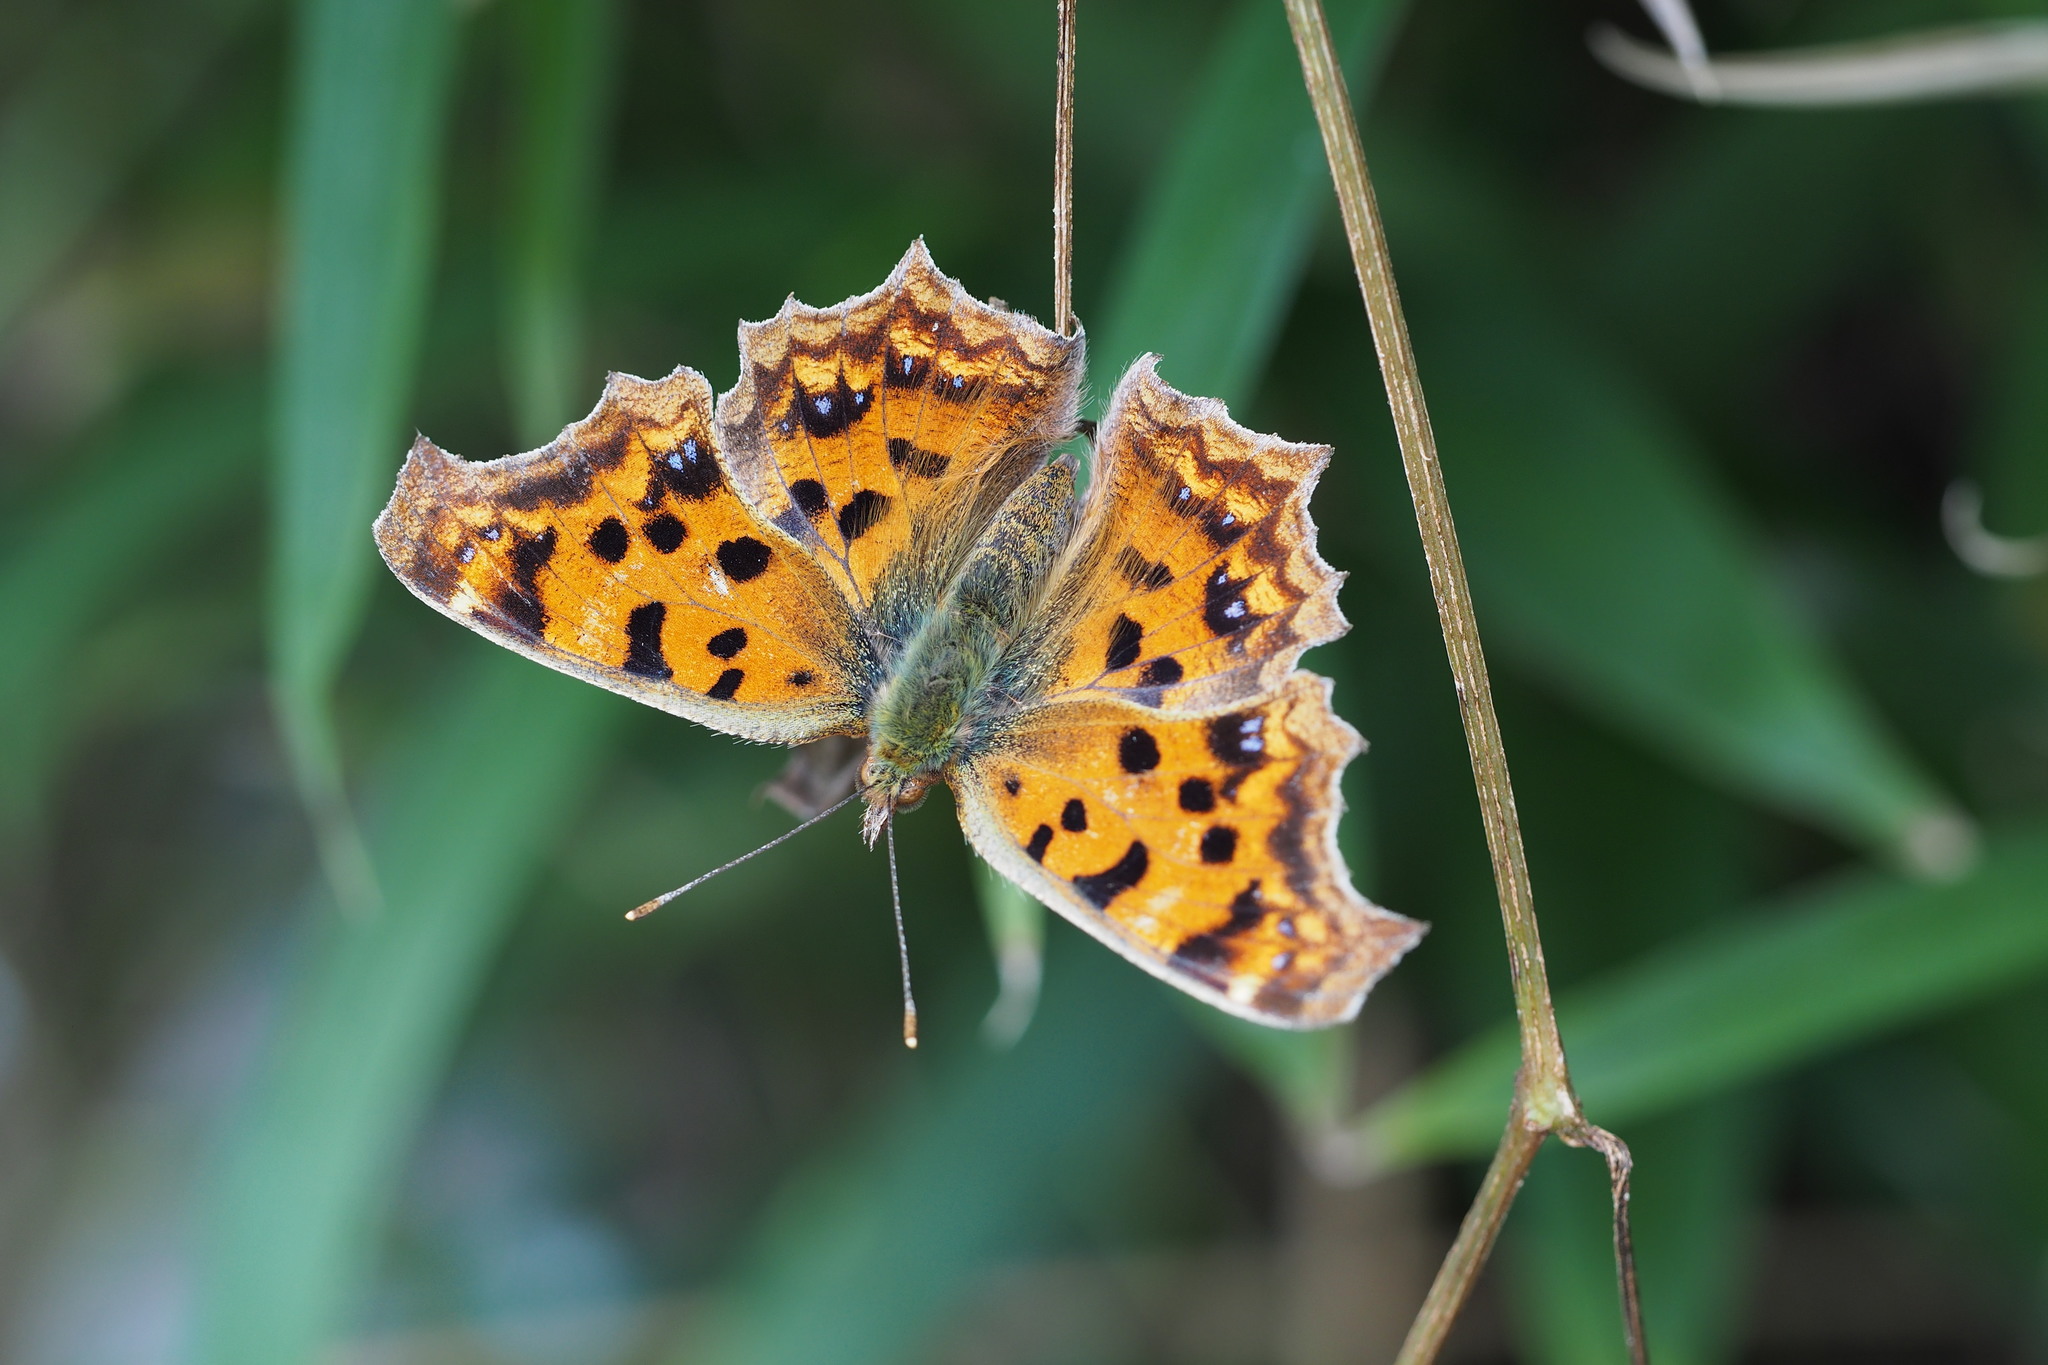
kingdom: Animalia
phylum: Arthropoda
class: Insecta
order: Lepidoptera
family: Nymphalidae
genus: Polygonia
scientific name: Polygonia c-aureum
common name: Asian comma
